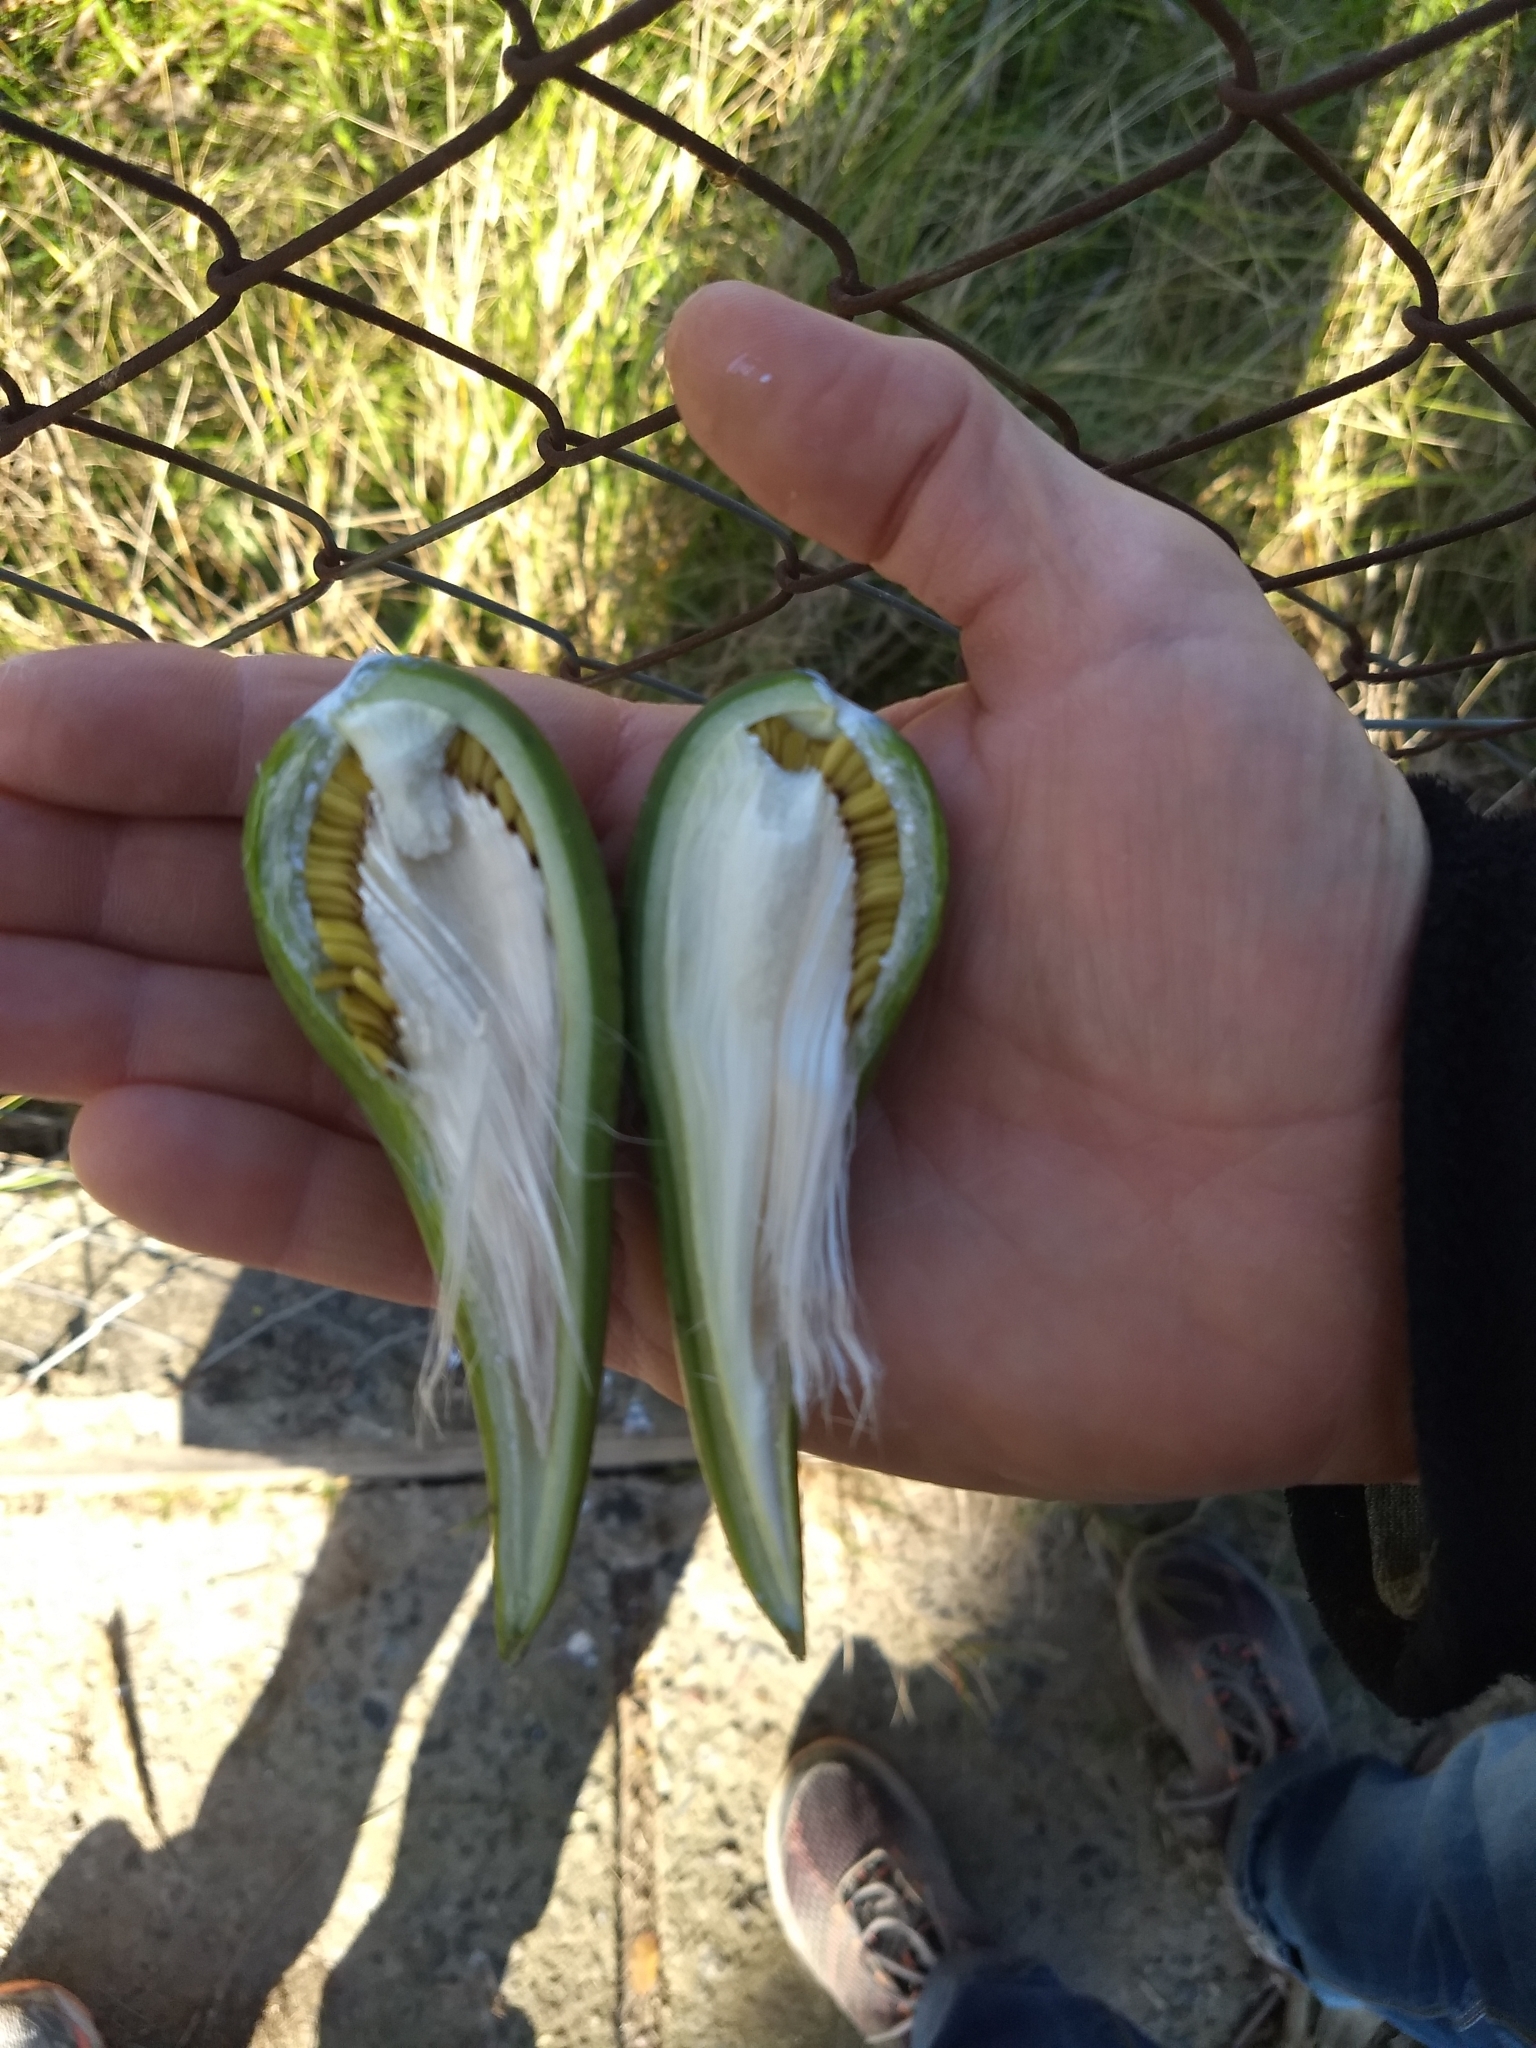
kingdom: Plantae
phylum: Tracheophyta
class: Magnoliopsida
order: Gentianales
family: Apocynaceae
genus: Araujia
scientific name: Araujia angustifolia
